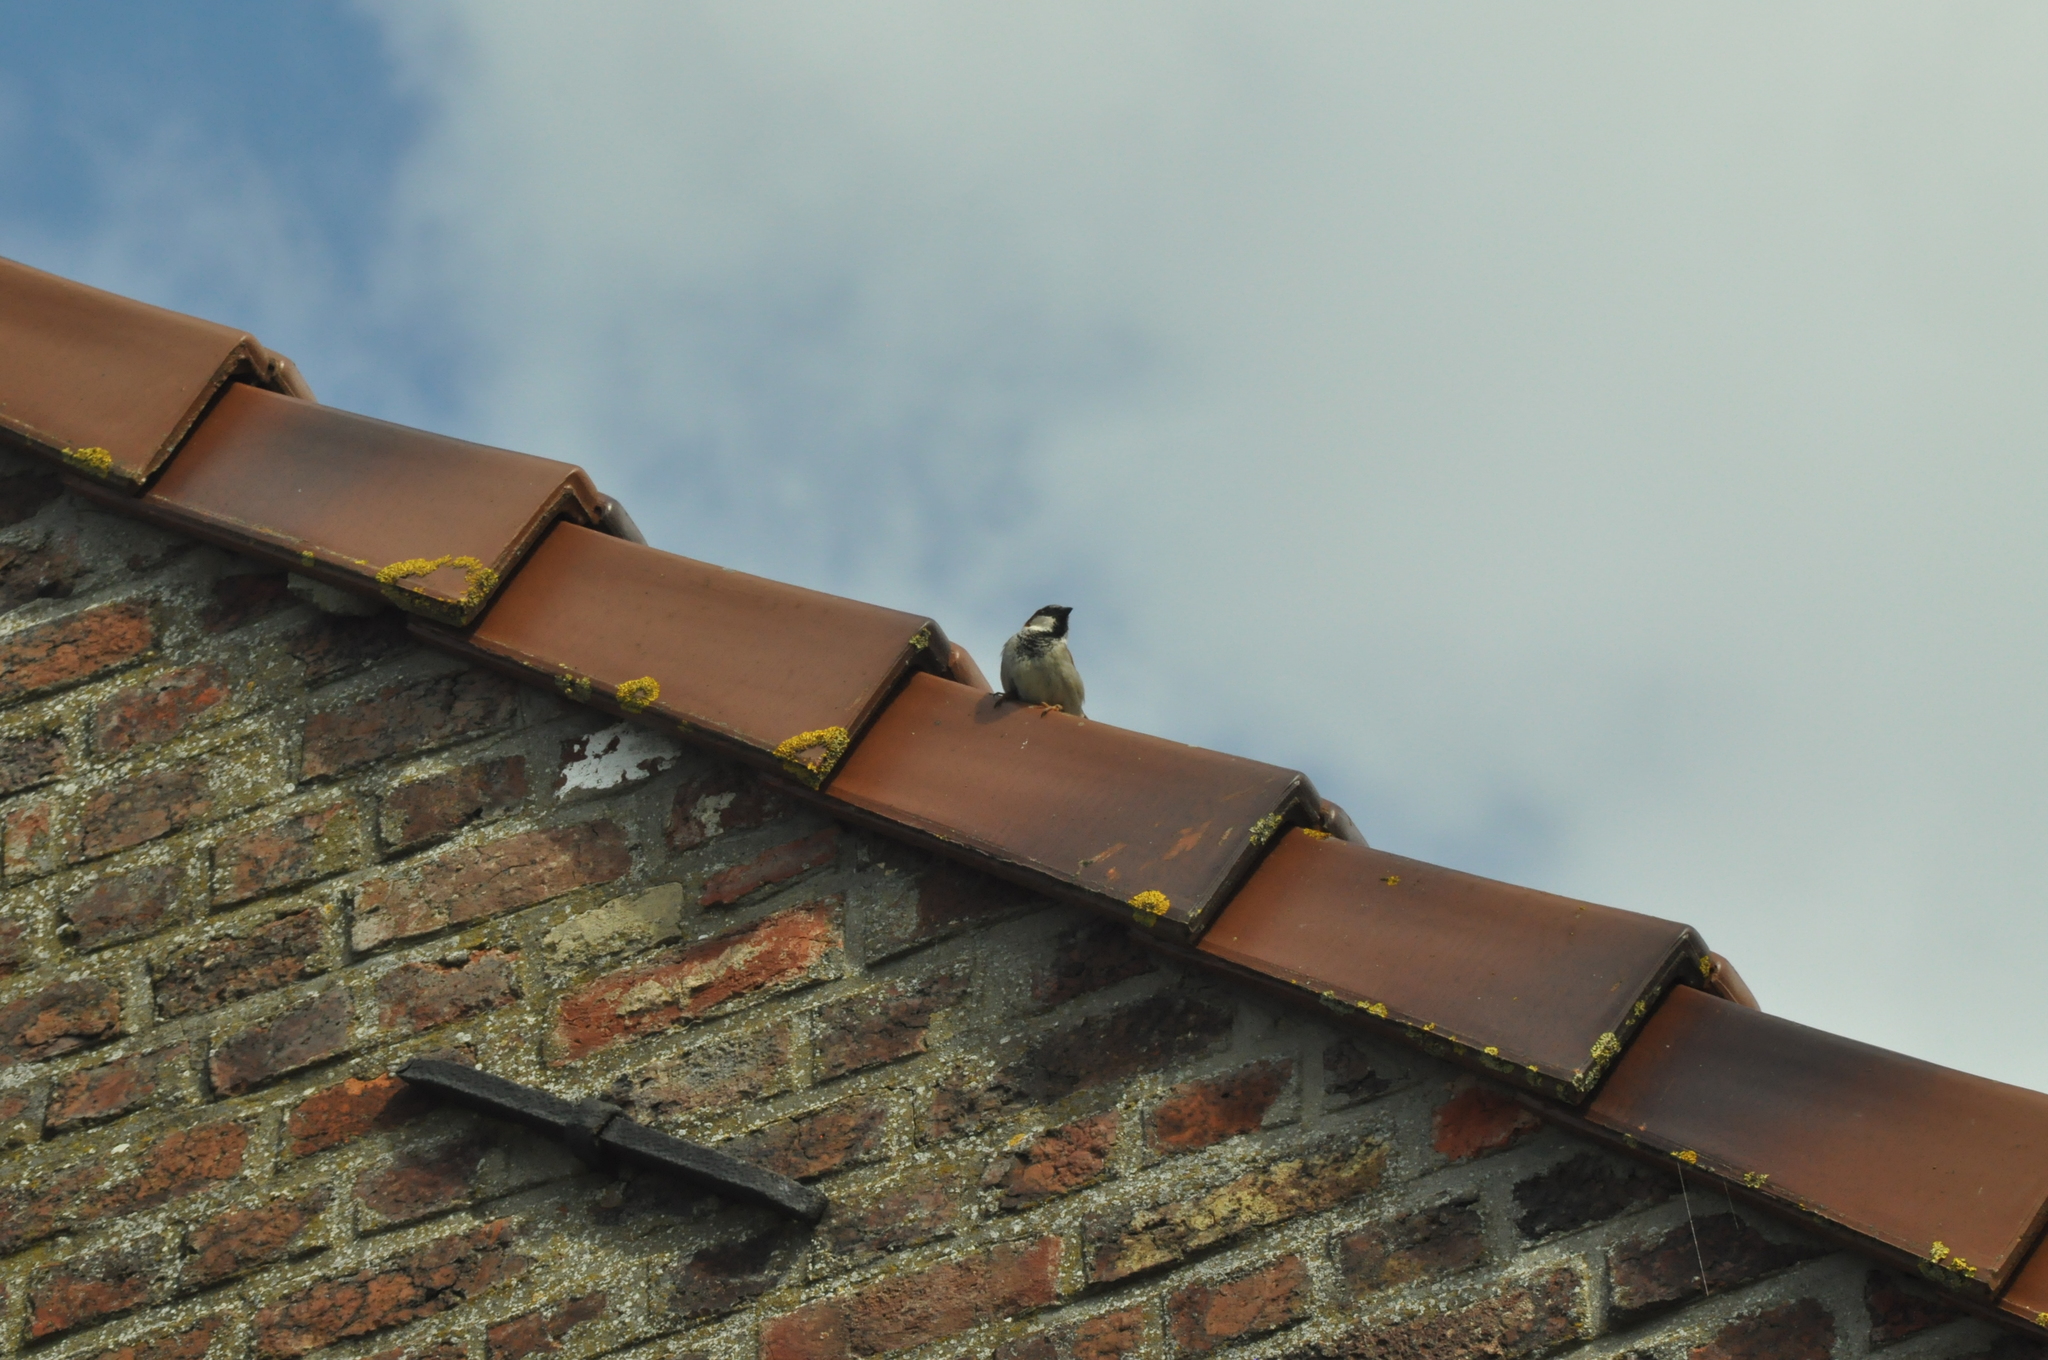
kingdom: Animalia
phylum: Chordata
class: Aves
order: Passeriformes
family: Passeridae
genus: Passer
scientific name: Passer domesticus
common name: House sparrow
